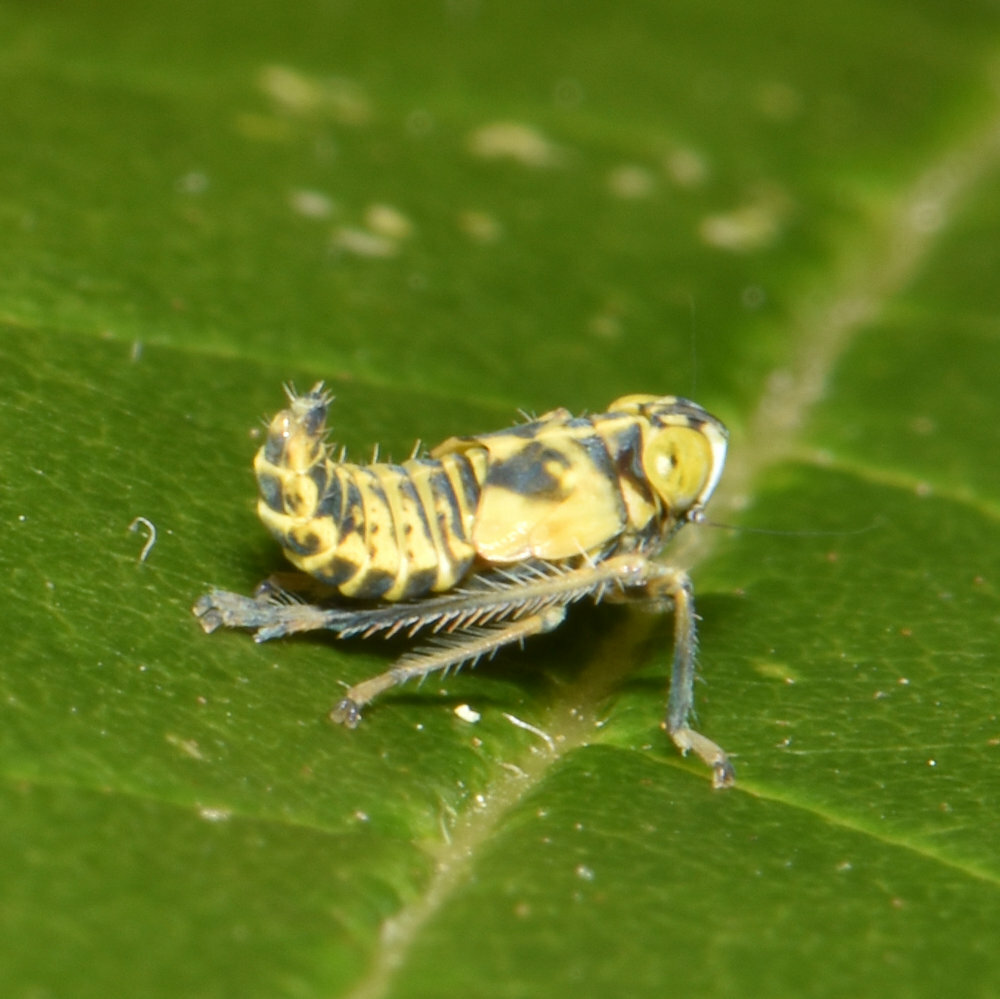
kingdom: Animalia
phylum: Arthropoda
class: Insecta
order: Hemiptera
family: Cicadellidae
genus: Jikradia
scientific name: Jikradia olitoria
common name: Coppery leafhopper
